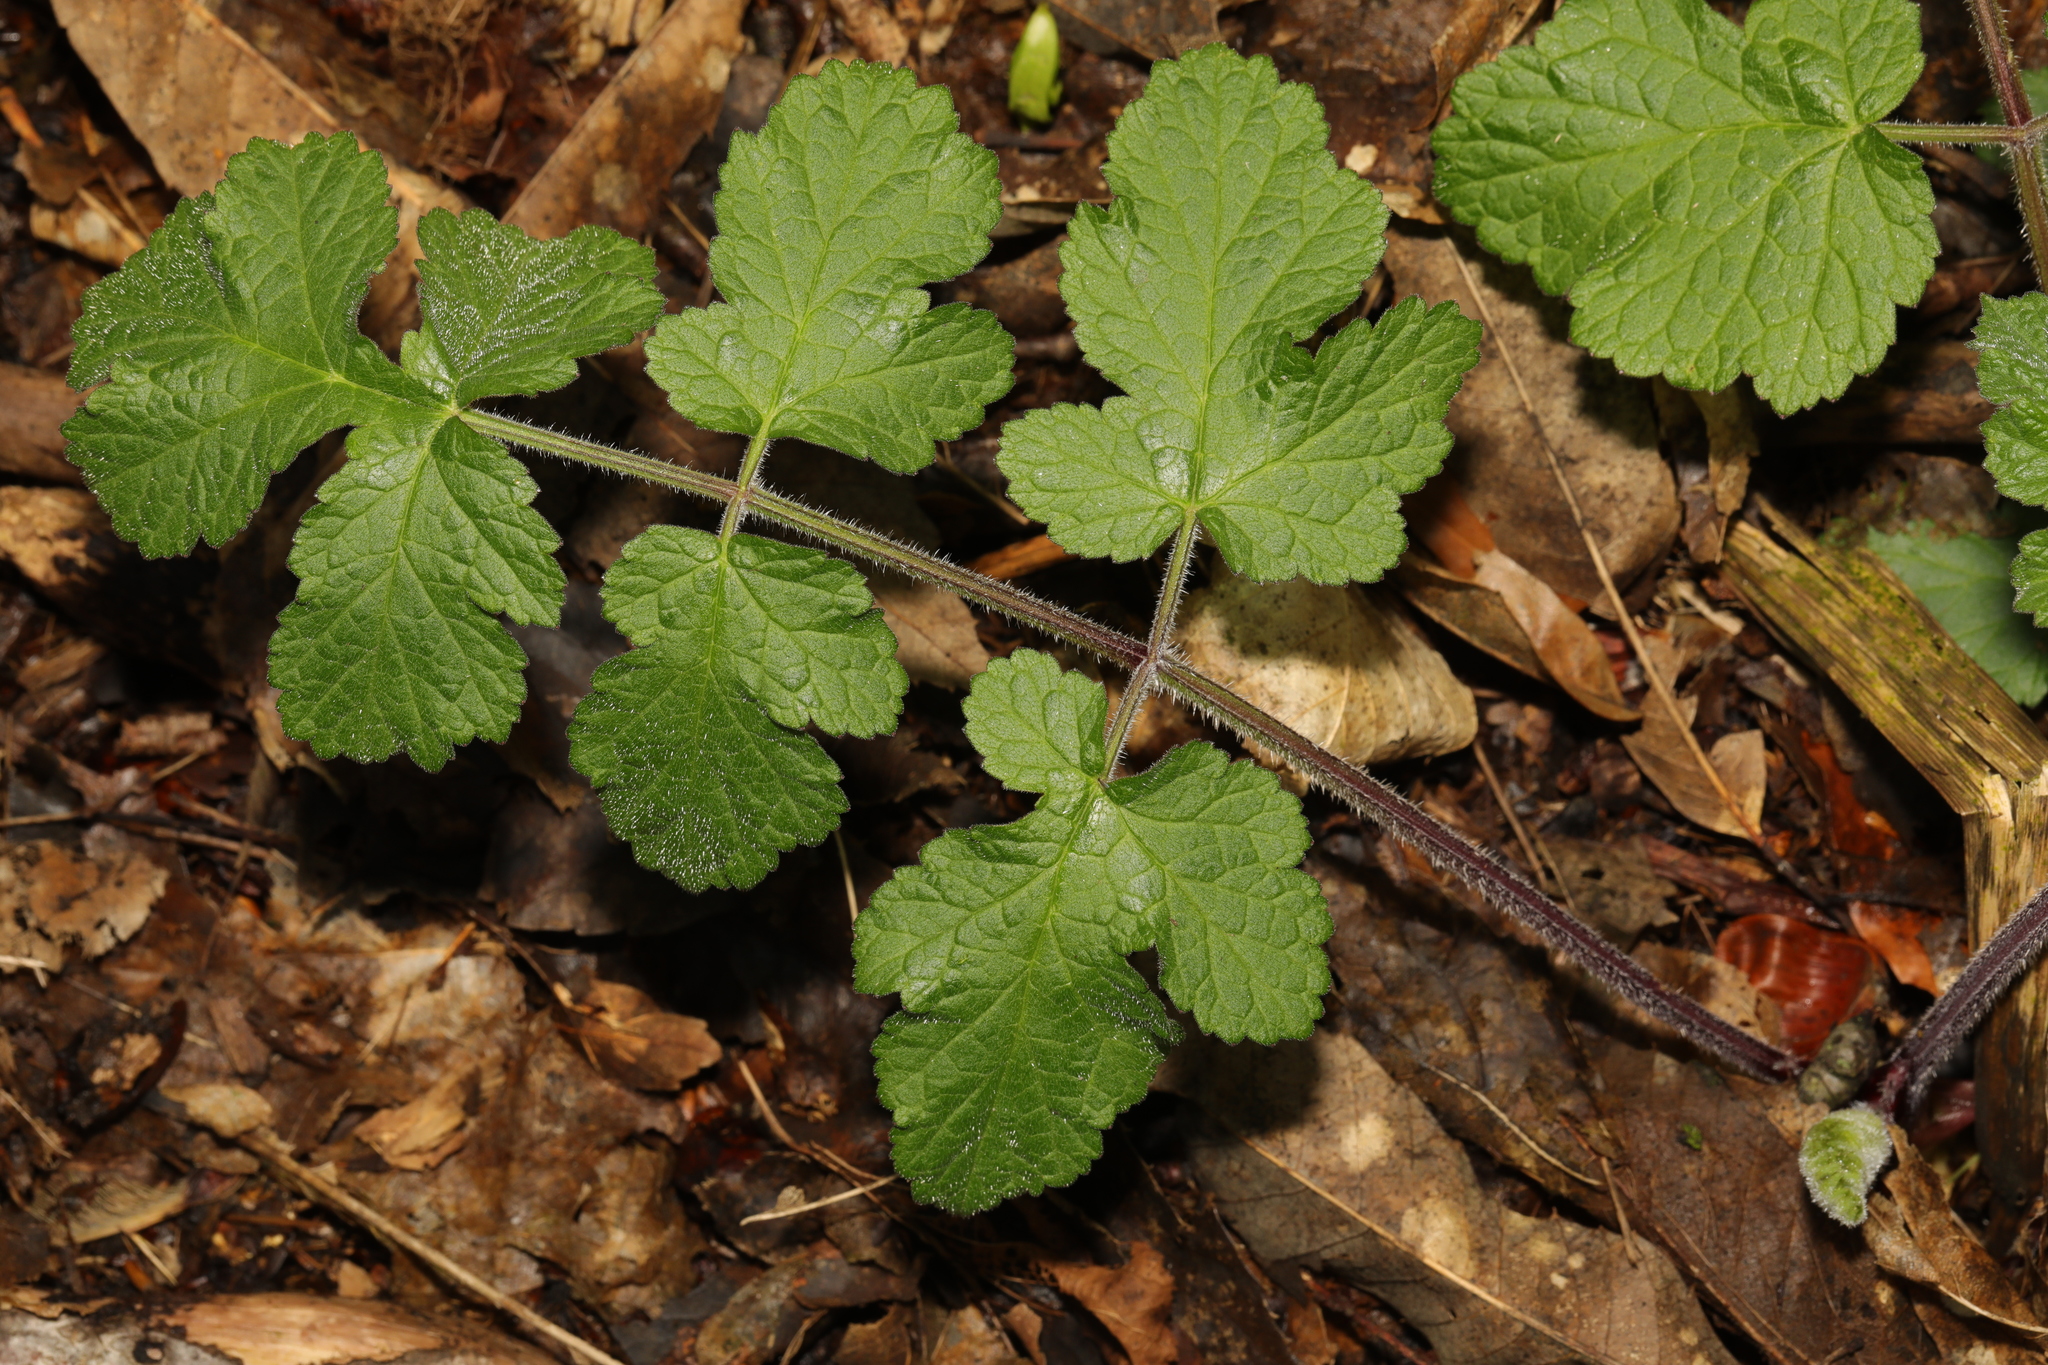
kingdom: Plantae
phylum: Tracheophyta
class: Magnoliopsida
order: Apiales
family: Apiaceae
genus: Heracleum
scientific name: Heracleum sphondylium
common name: Hogweed
